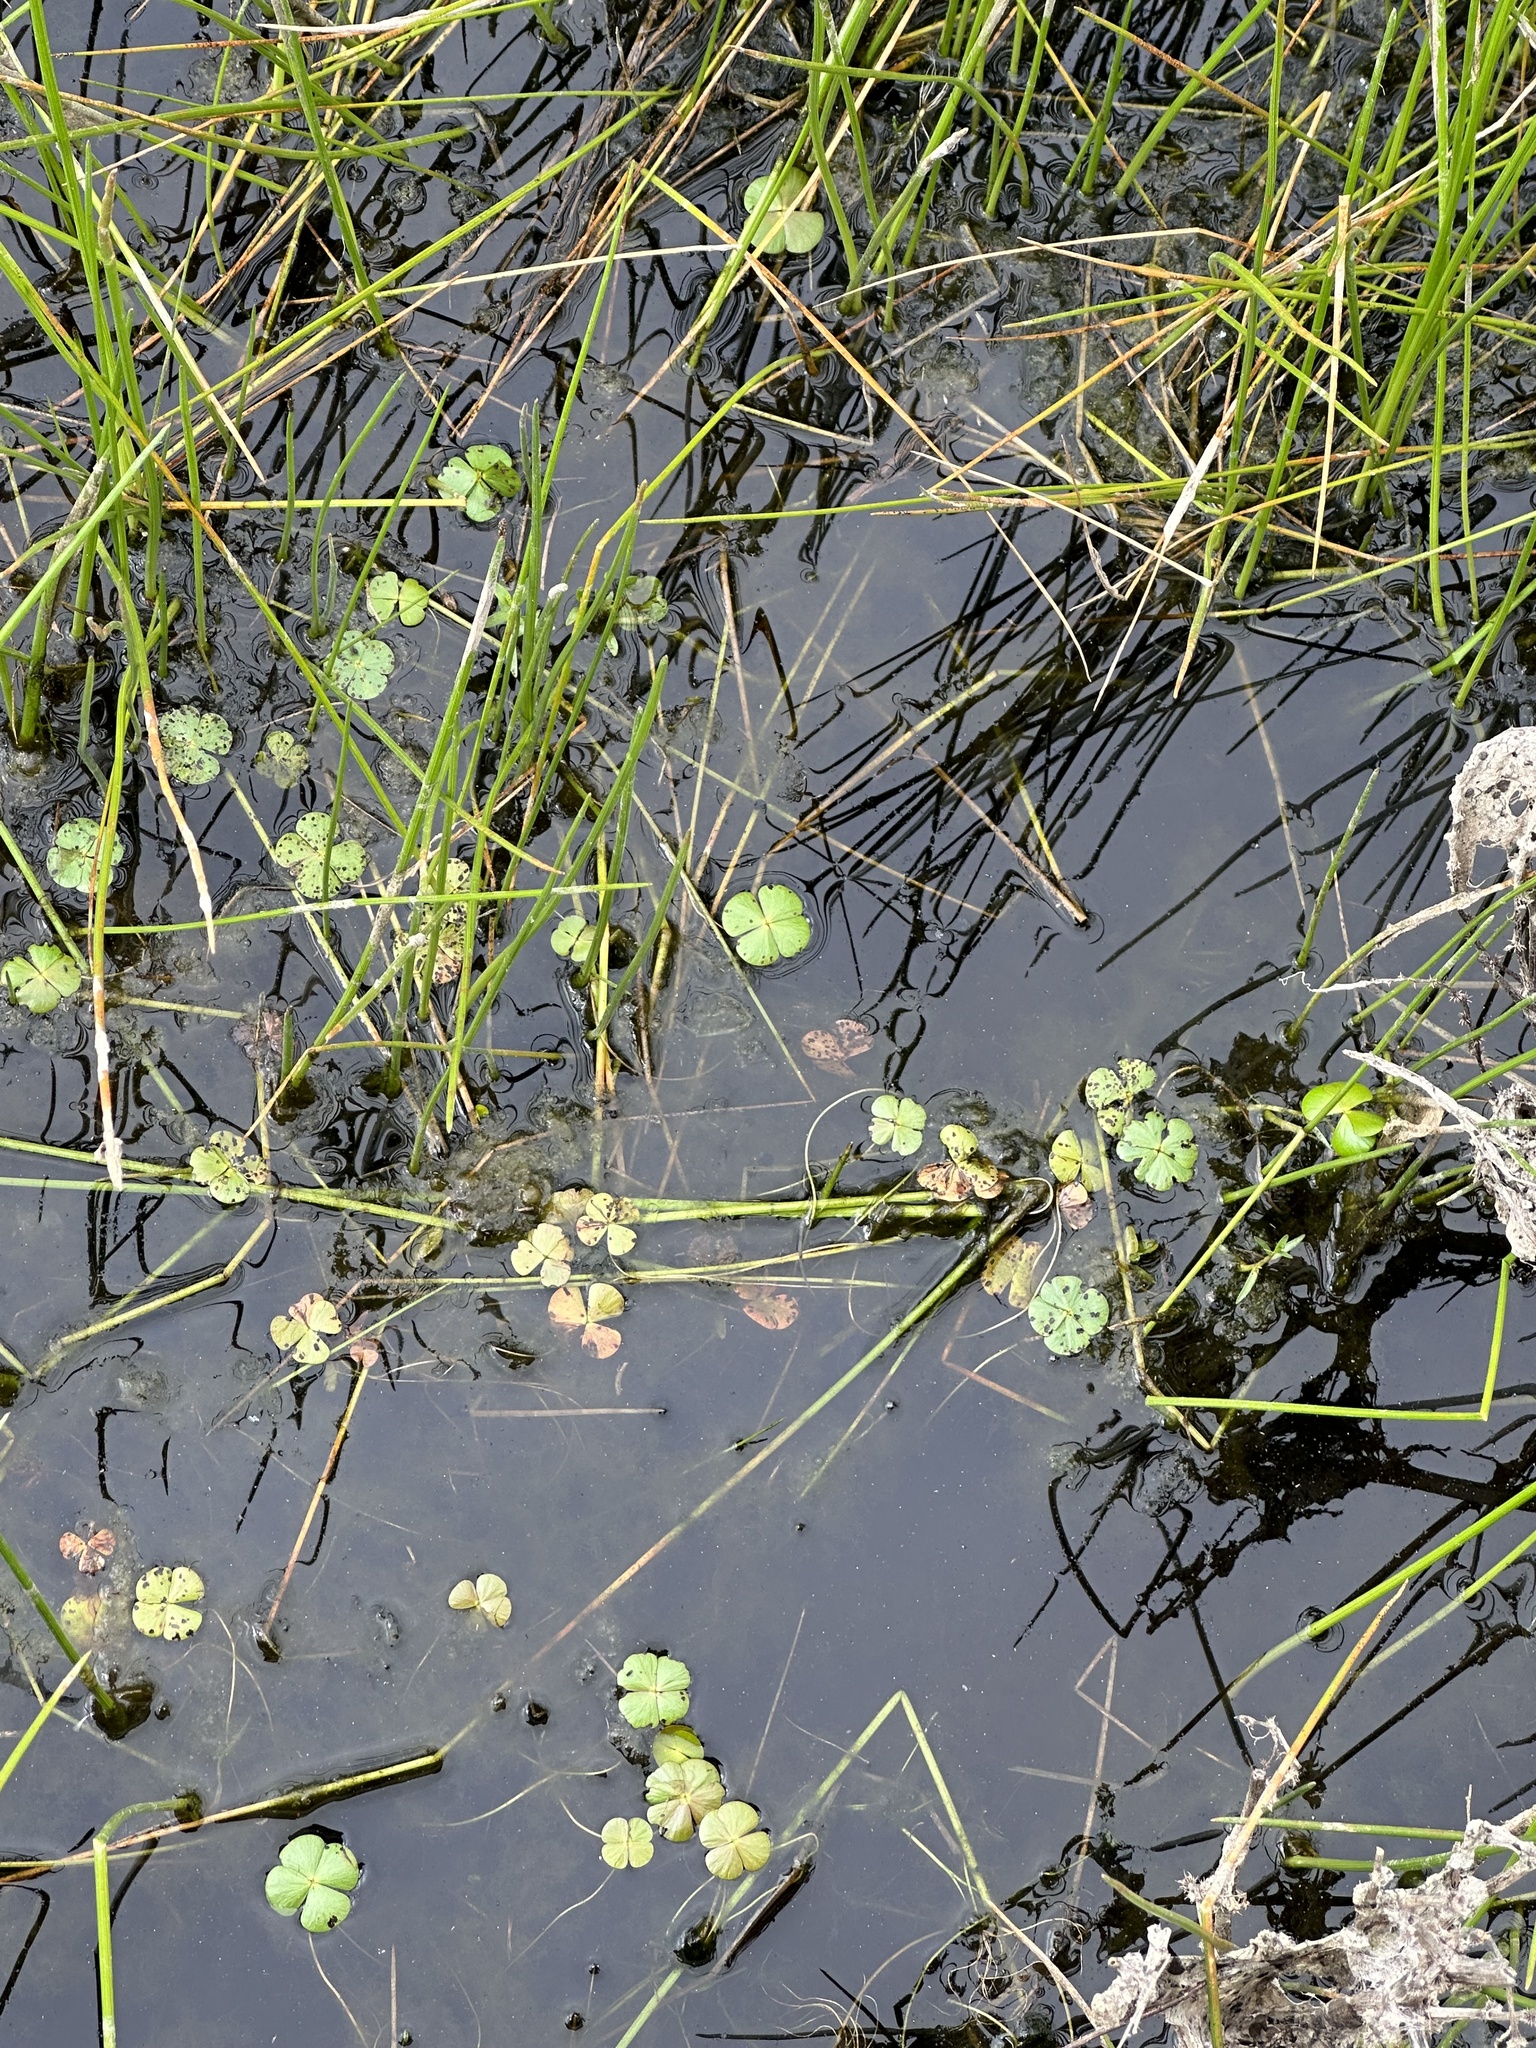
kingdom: Plantae
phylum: Tracheophyta
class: Polypodiopsida
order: Salviniales
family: Marsileaceae
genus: Marsilea
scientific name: Marsilea vestita
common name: Hooked-pepperwort
